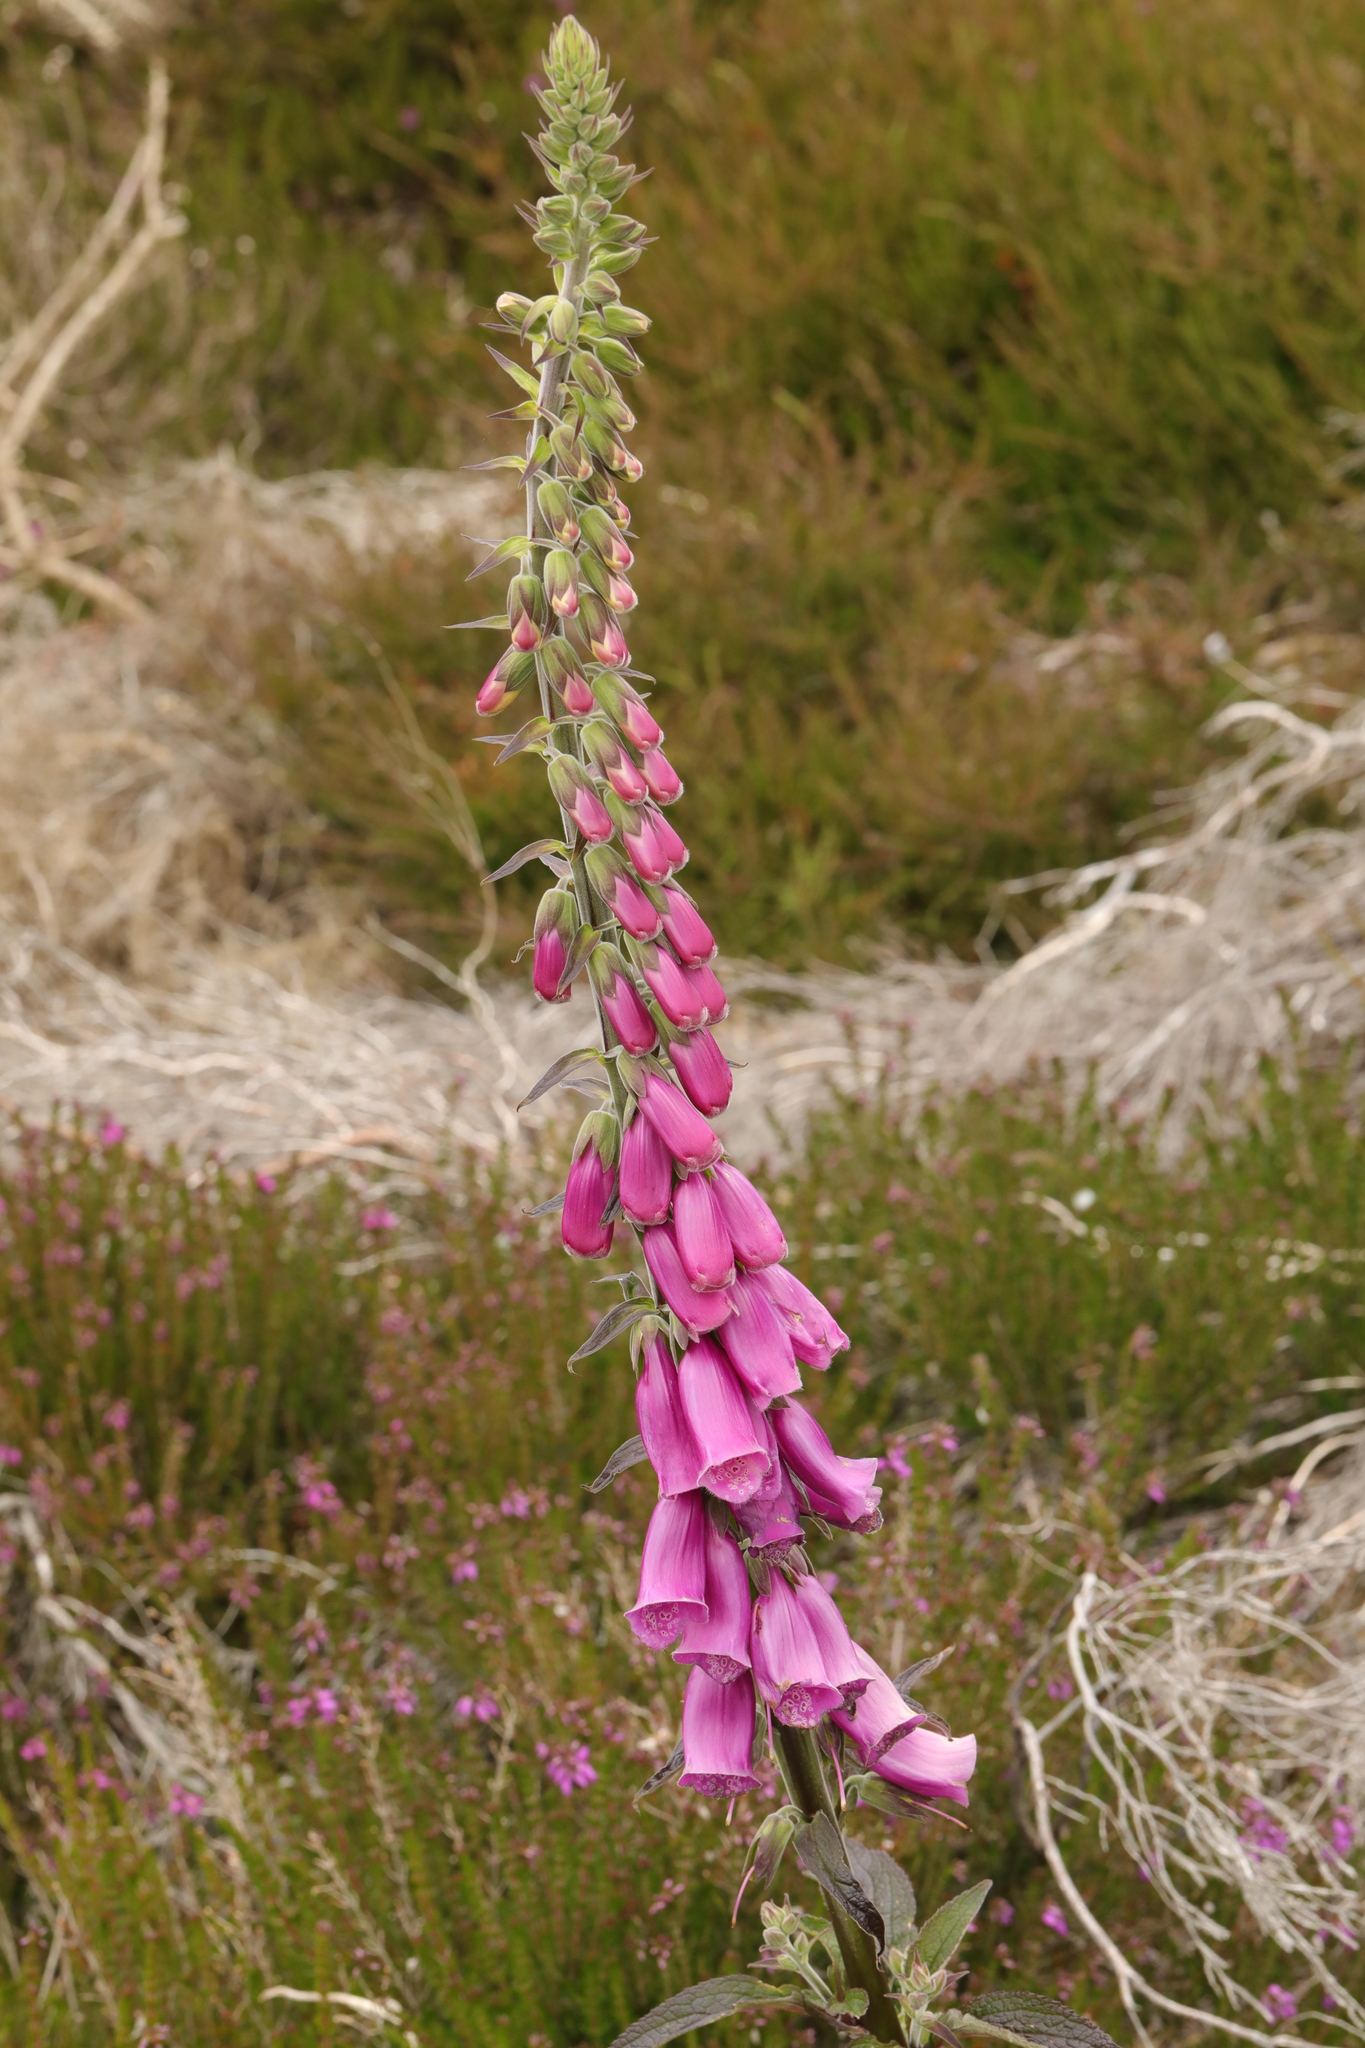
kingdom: Plantae
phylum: Tracheophyta
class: Magnoliopsida
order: Lamiales
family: Plantaginaceae
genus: Digitalis
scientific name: Digitalis purpurea
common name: Foxglove
